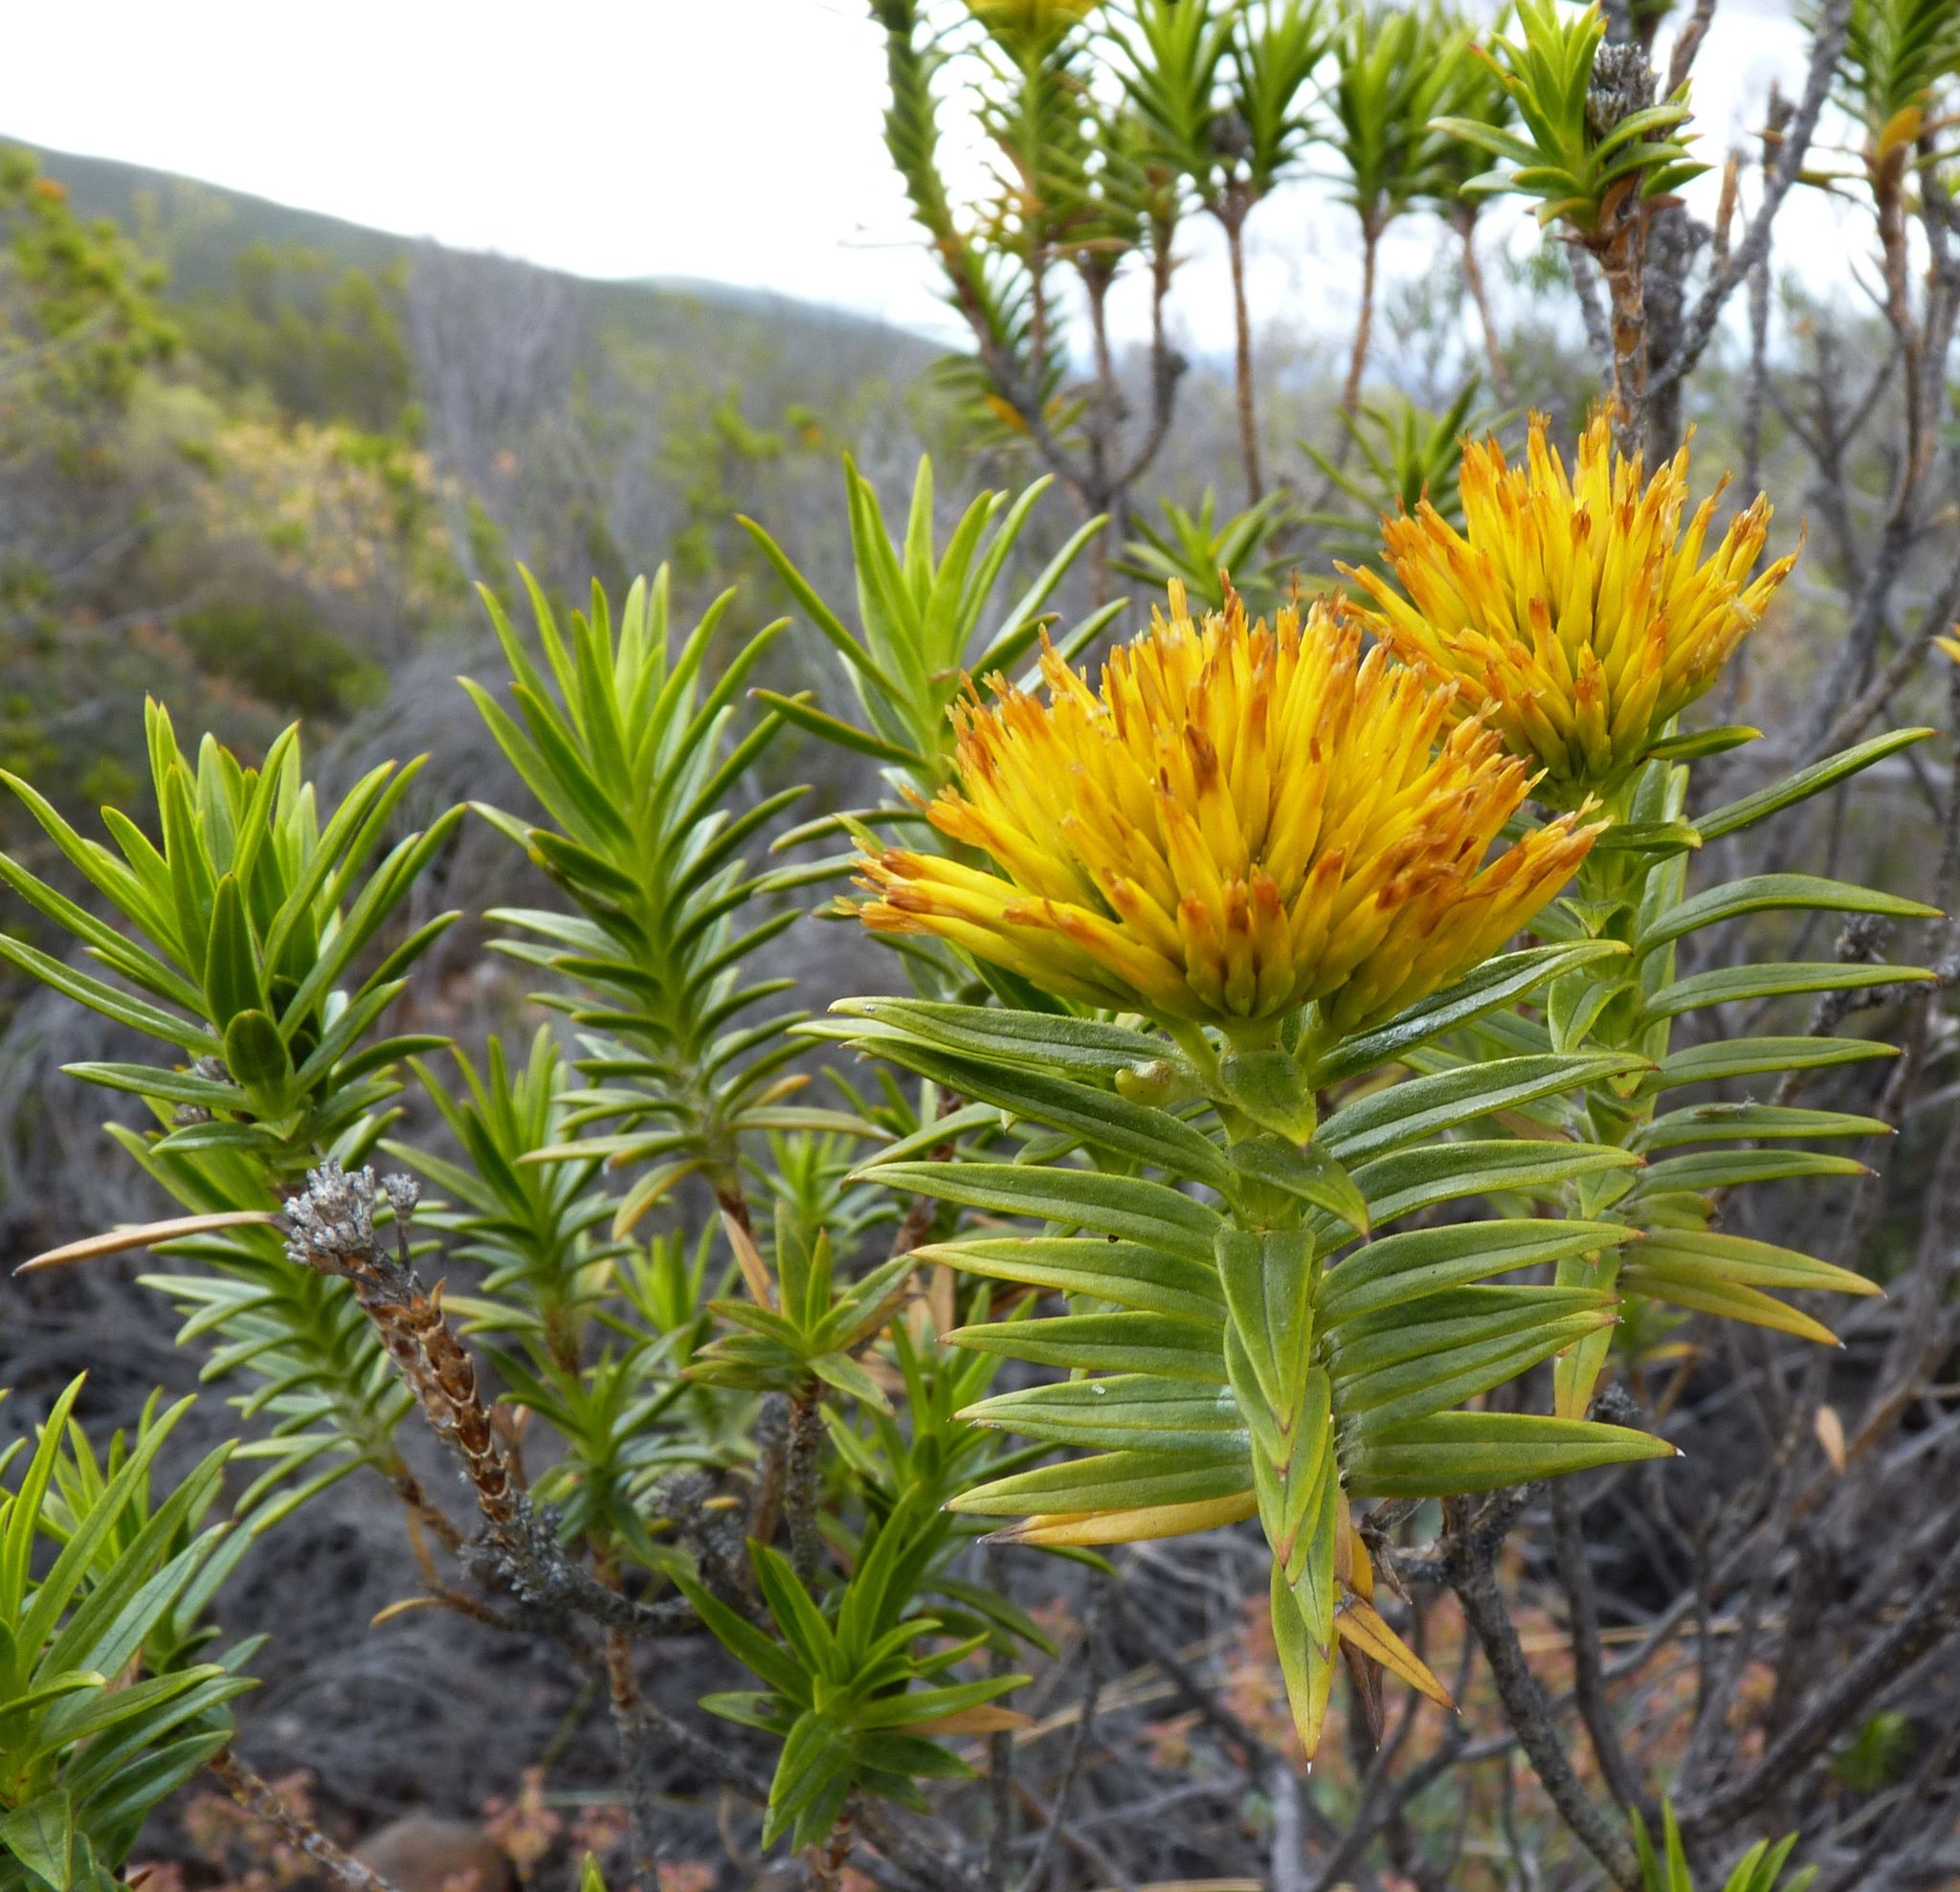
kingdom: Plantae
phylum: Tracheophyta
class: Magnoliopsida
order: Asterales
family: Asteraceae
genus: Pteronia
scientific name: Pteronia fasciculata
